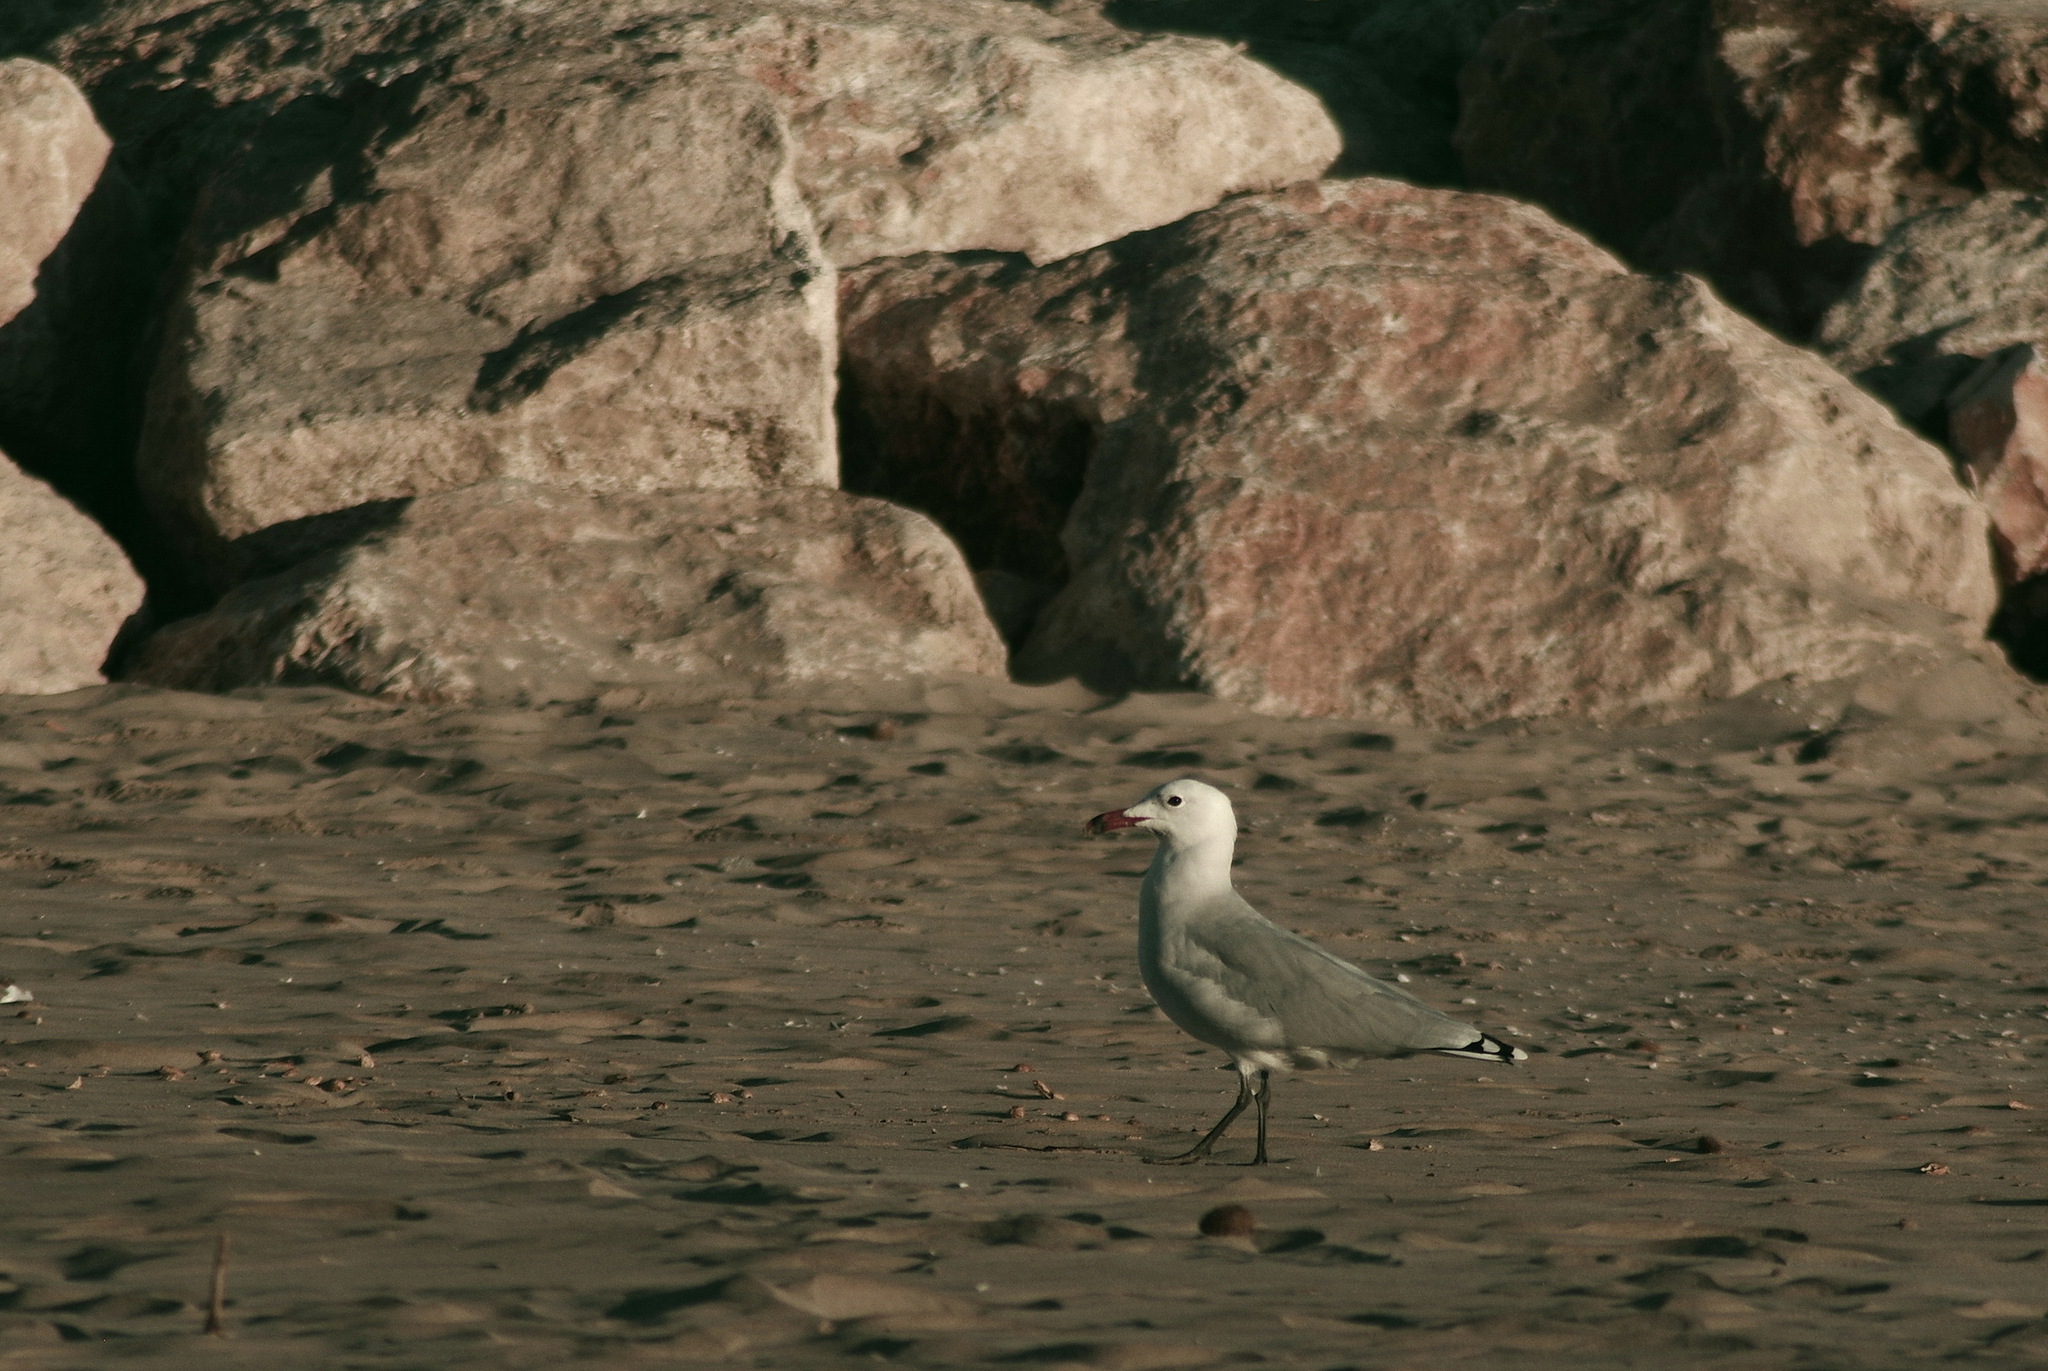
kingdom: Animalia
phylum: Chordata
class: Aves
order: Charadriiformes
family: Laridae
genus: Ichthyaetus
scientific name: Ichthyaetus audouinii
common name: Audouin's gull
